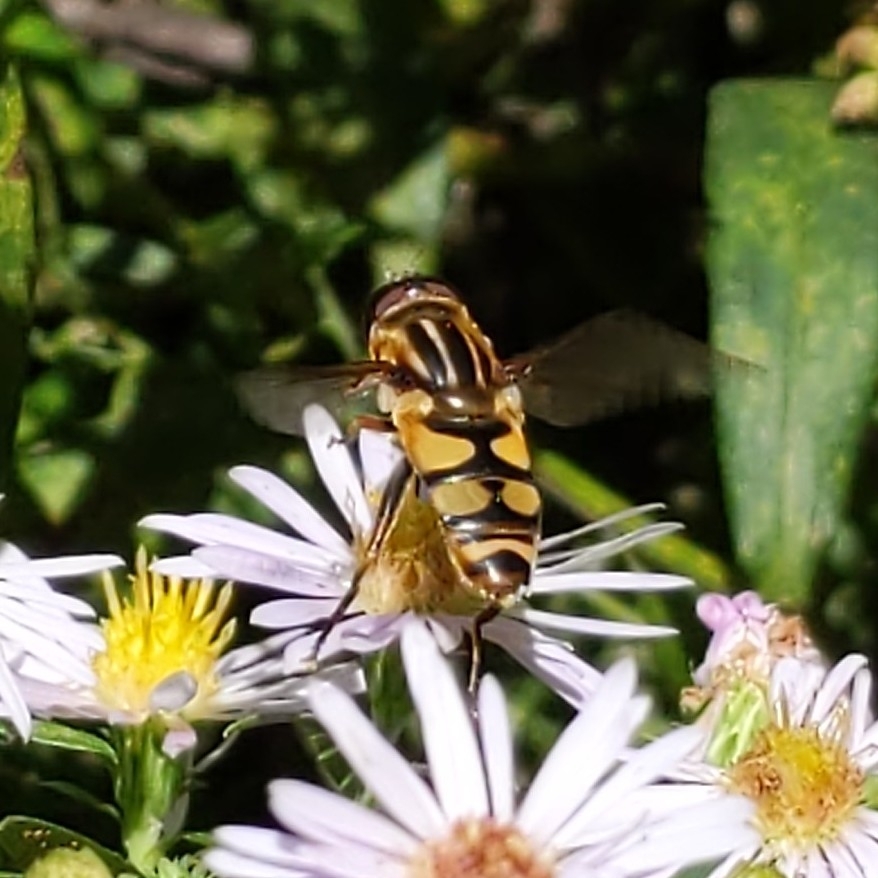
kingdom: Animalia
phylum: Arthropoda
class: Insecta
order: Diptera
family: Syrphidae
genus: Helophilus
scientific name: Helophilus fasciatus
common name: Narrow-headed marsh fly
